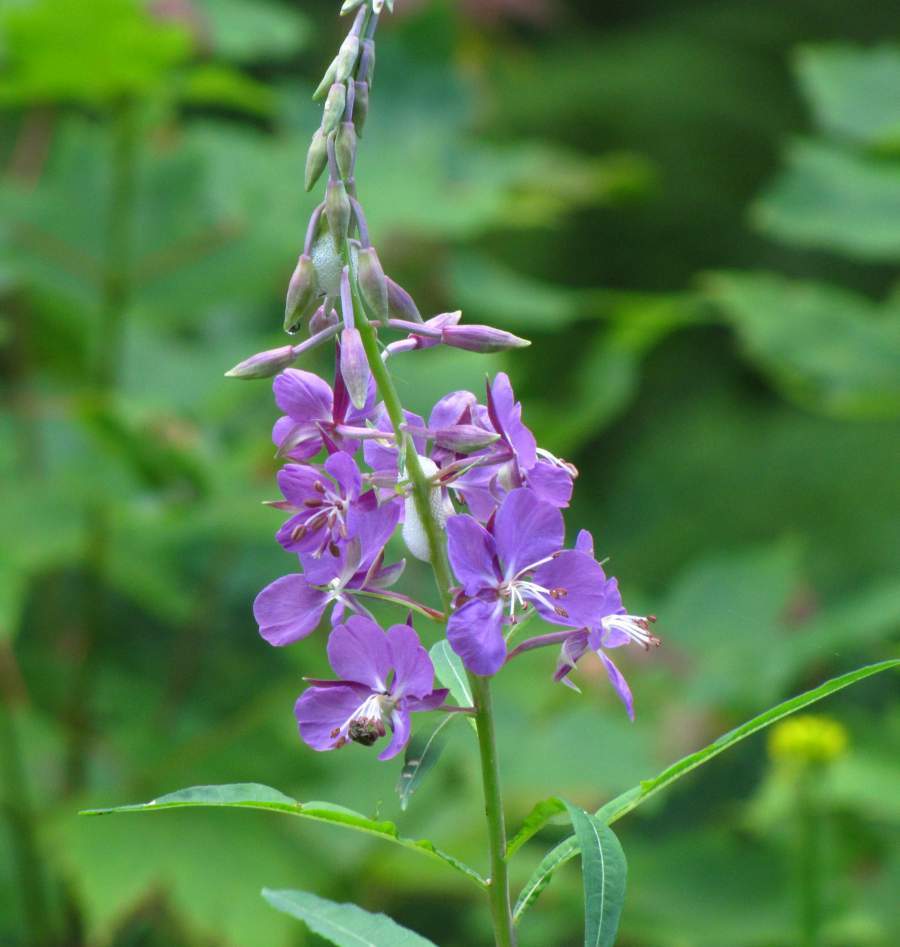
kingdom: Plantae
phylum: Tracheophyta
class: Magnoliopsida
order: Myrtales
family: Onagraceae
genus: Chamaenerion
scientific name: Chamaenerion angustifolium
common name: Fireweed
